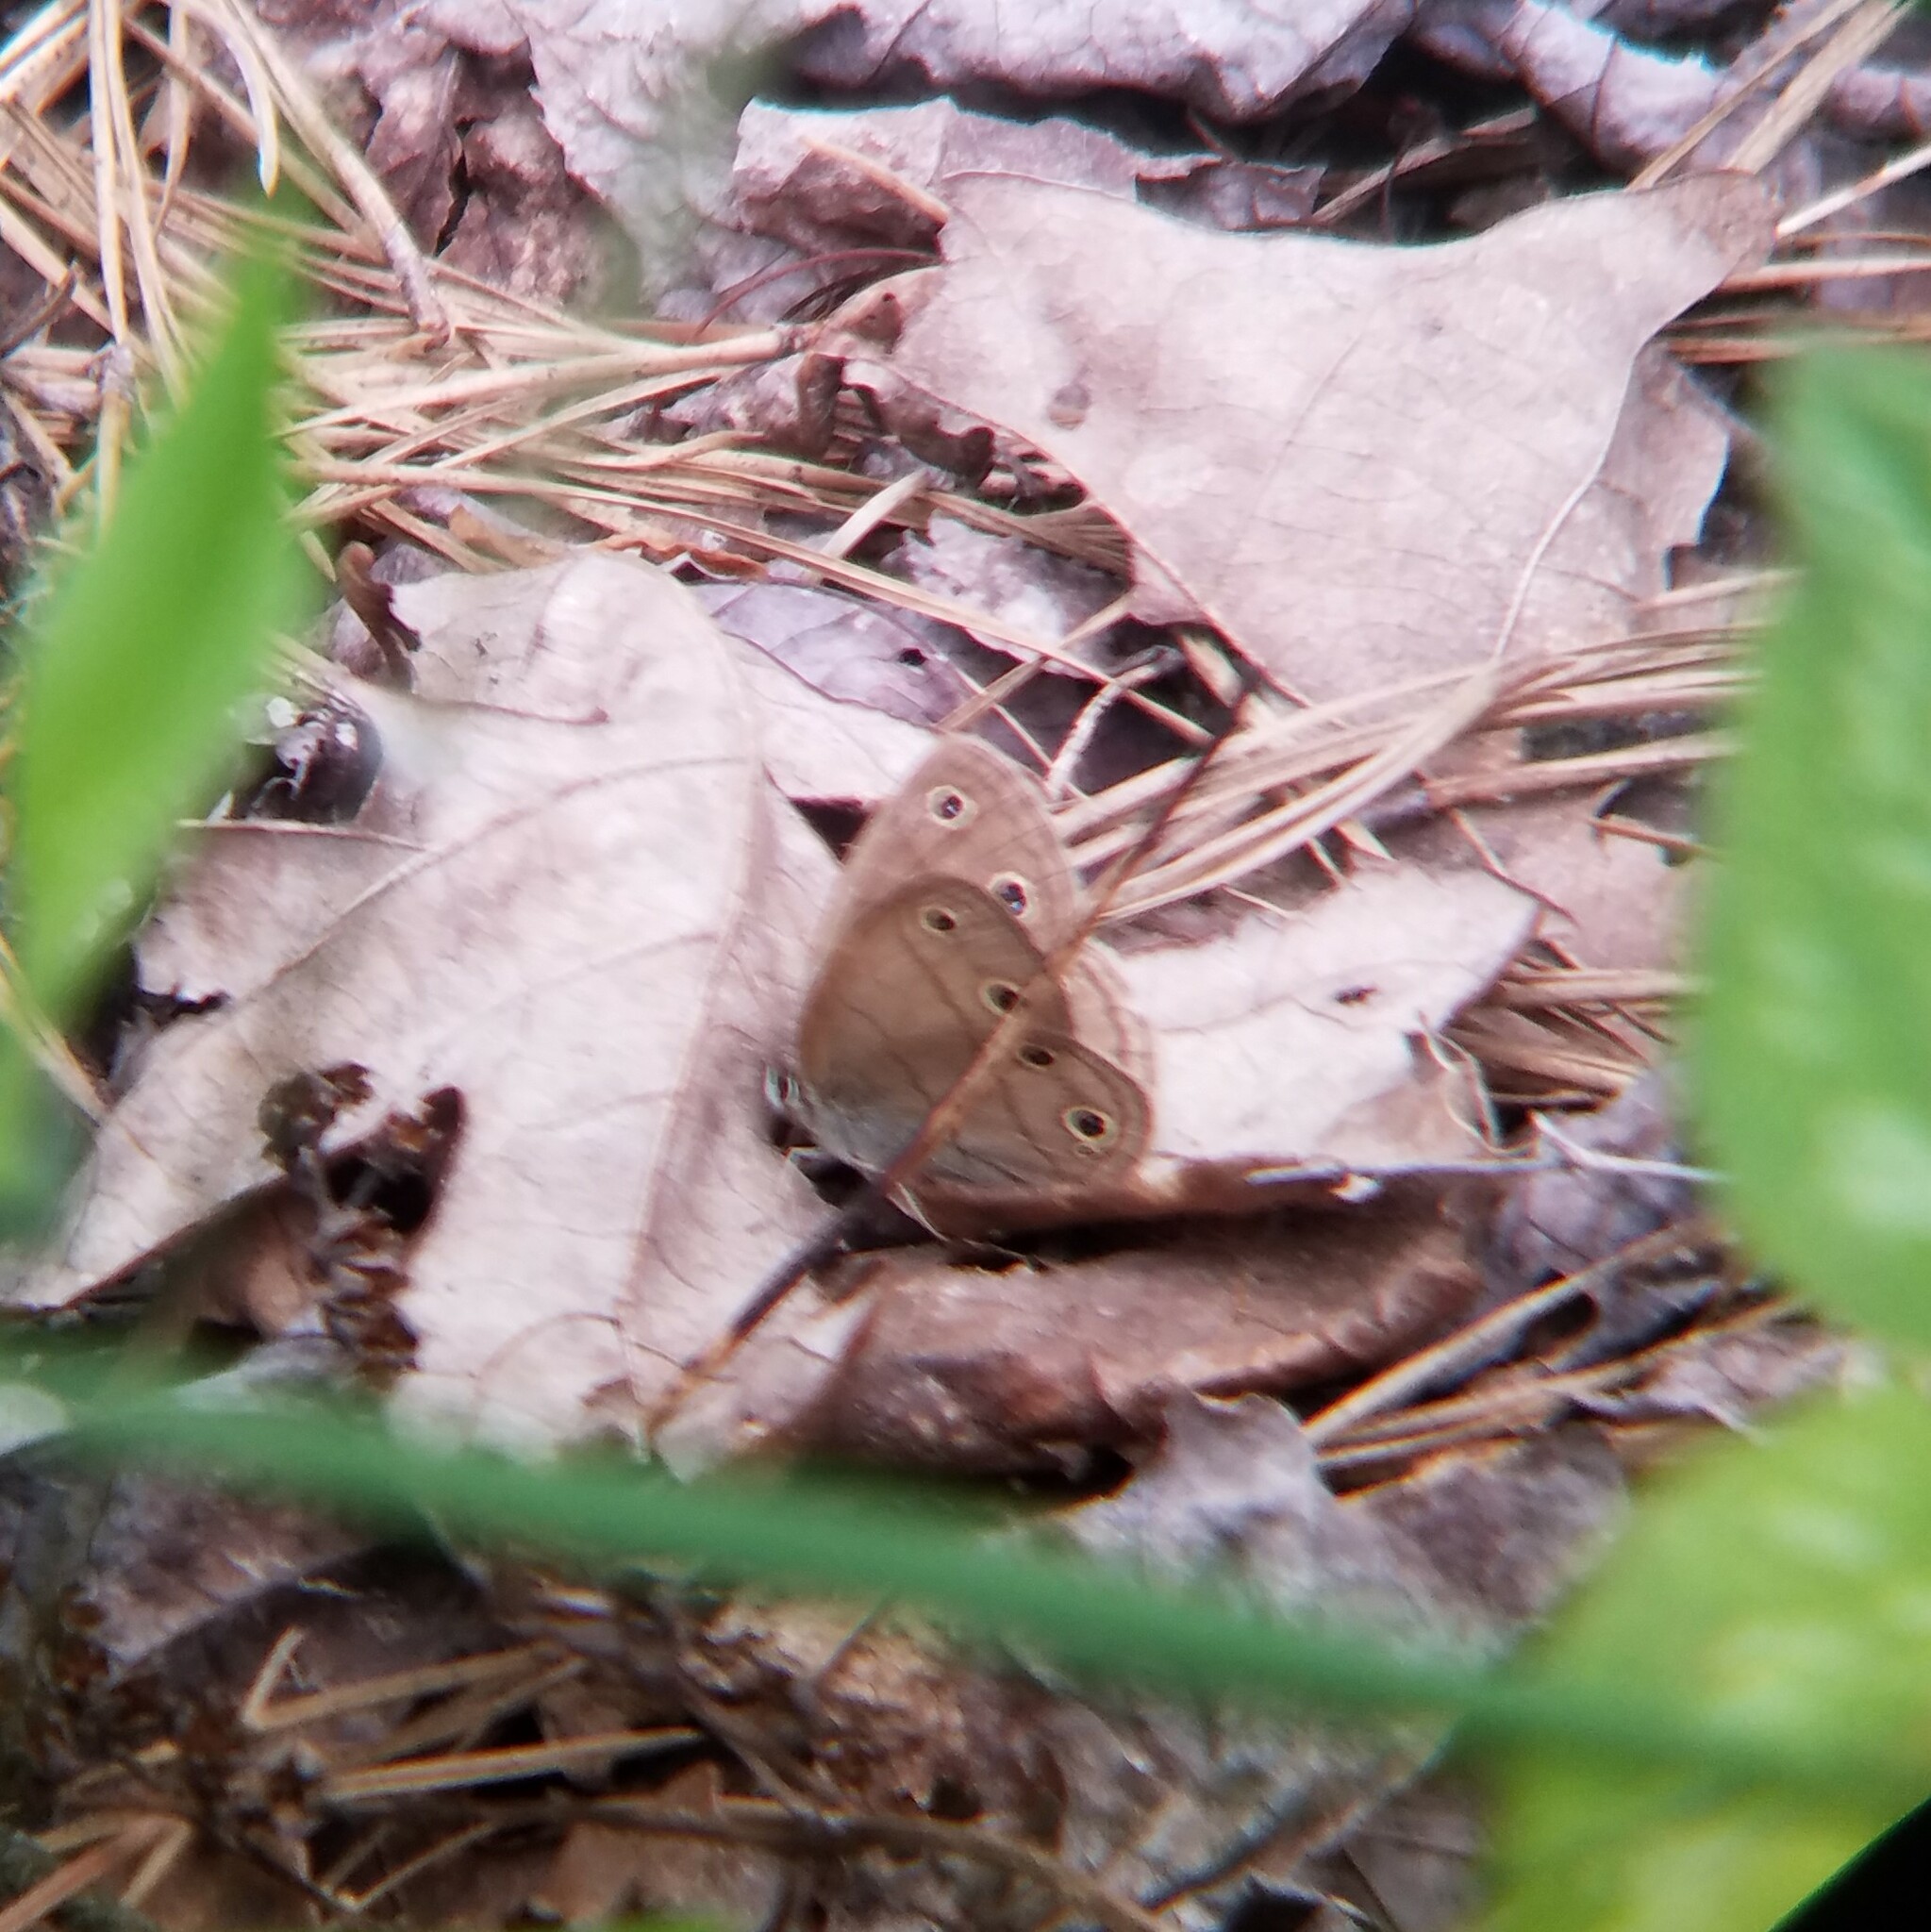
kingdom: Animalia
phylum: Arthropoda
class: Insecta
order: Lepidoptera
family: Nymphalidae
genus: Euptychia
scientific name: Euptychia cymela
